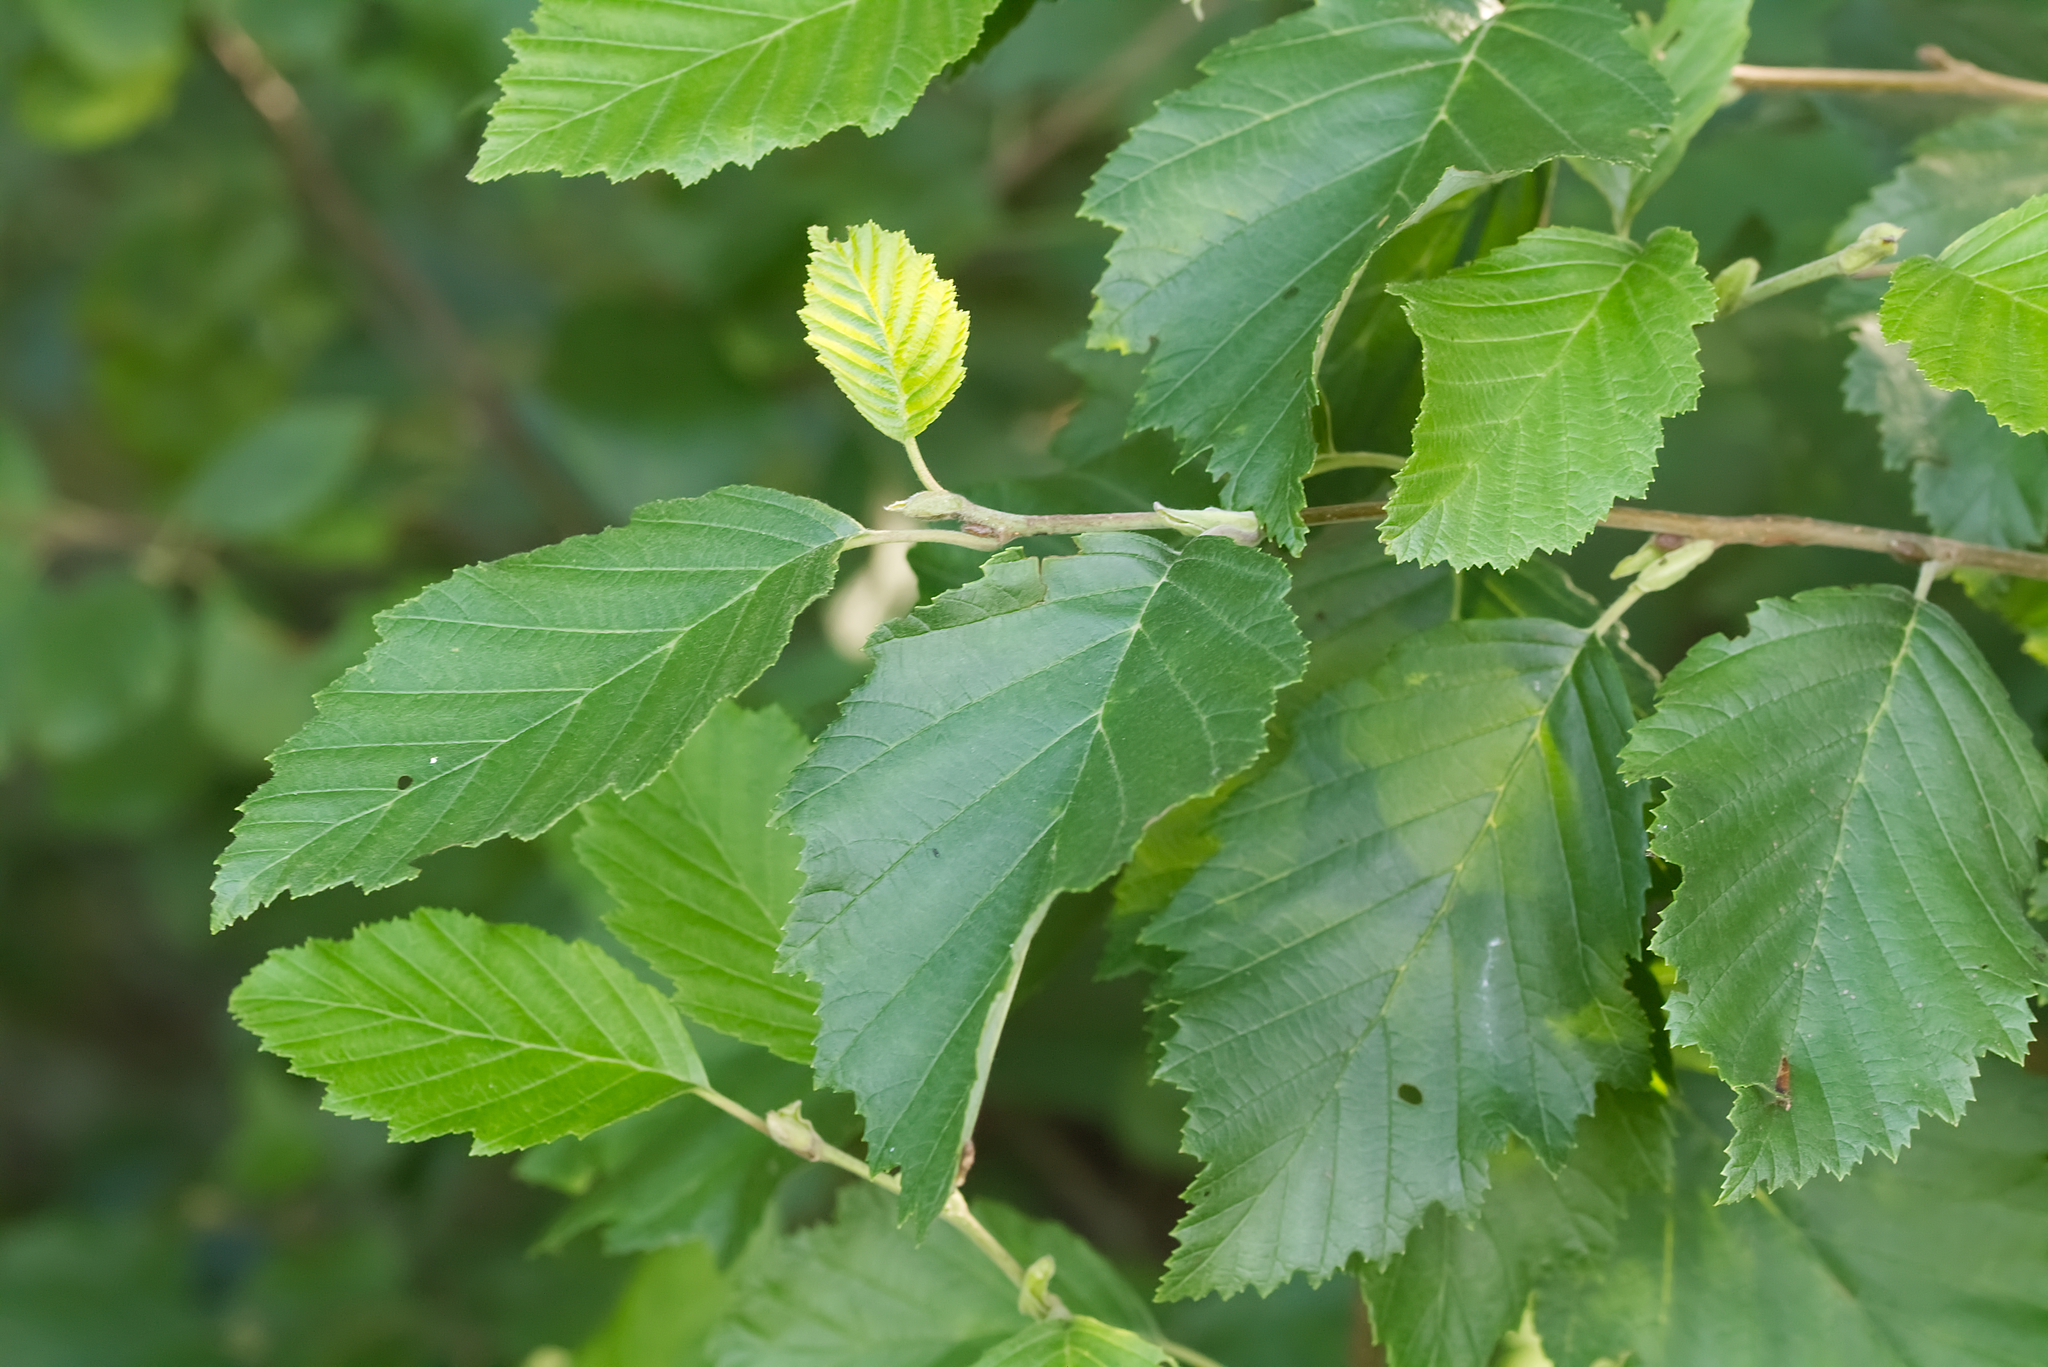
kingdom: Plantae
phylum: Tracheophyta
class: Magnoliopsida
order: Fagales
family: Betulaceae
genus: Alnus
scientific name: Alnus incana
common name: Grey alder
